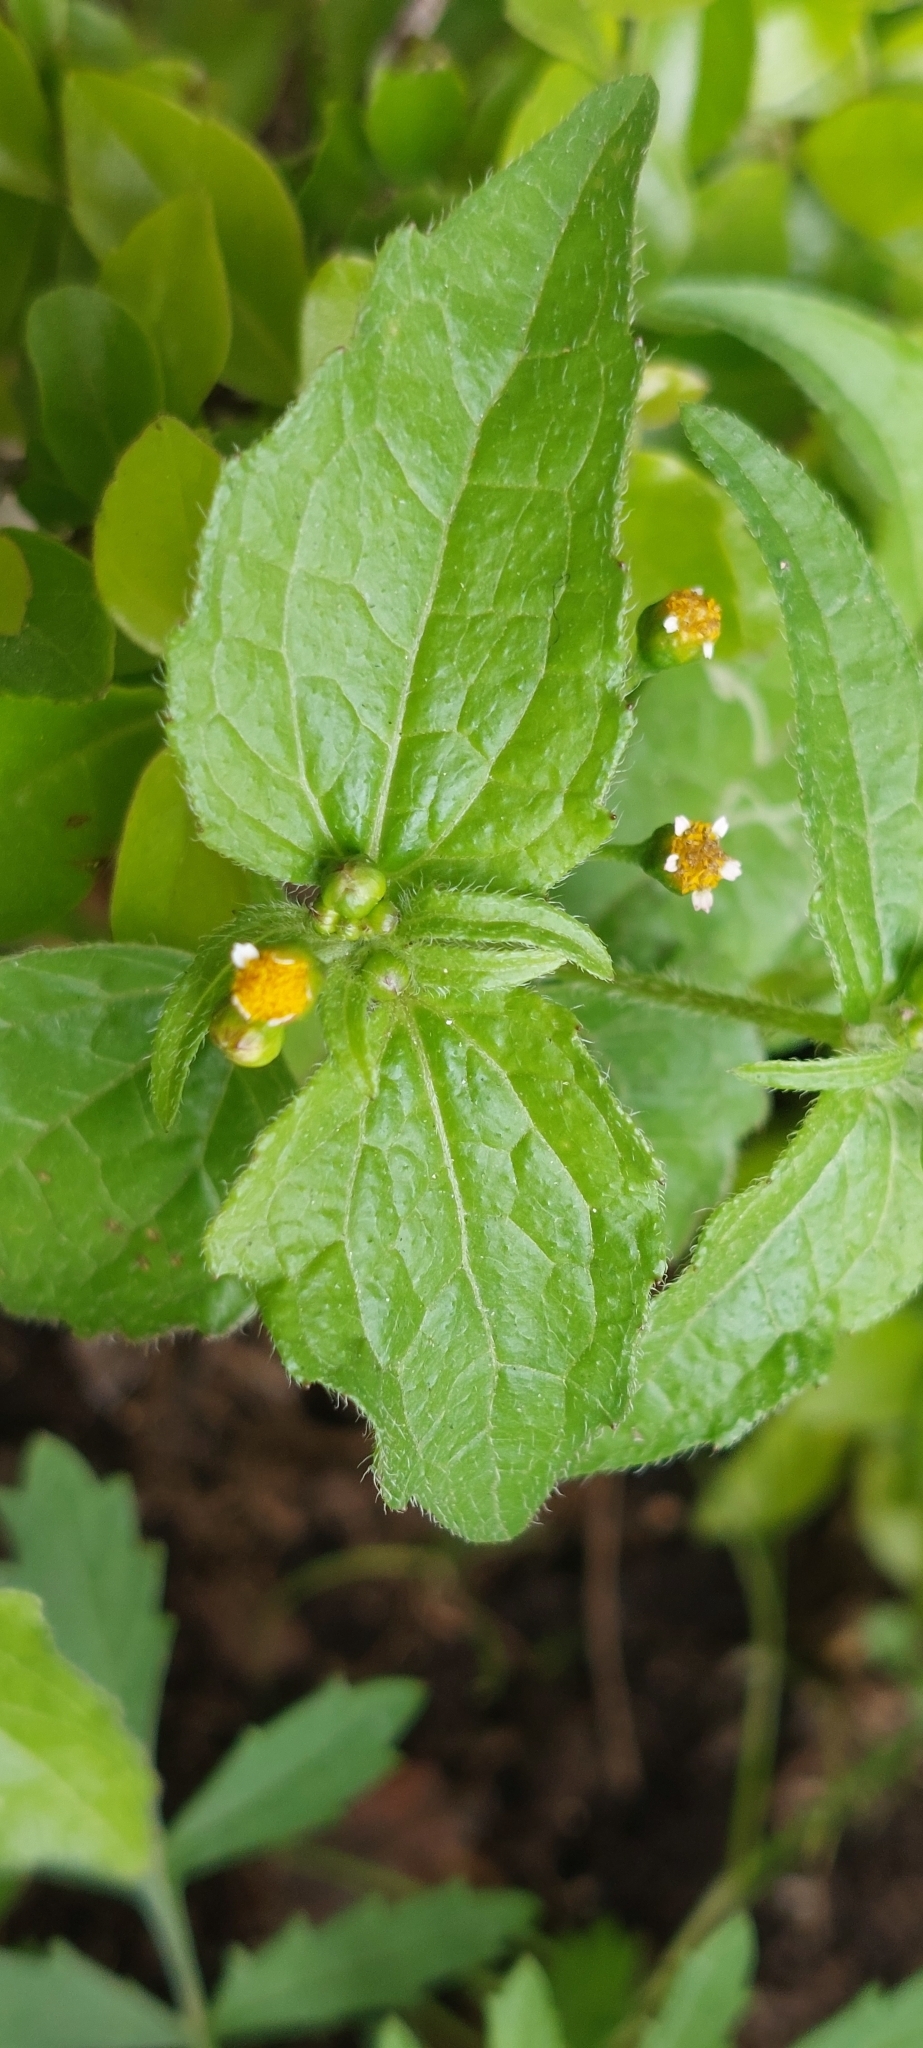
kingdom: Plantae
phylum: Tracheophyta
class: Magnoliopsida
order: Asterales
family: Asteraceae
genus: Galinsoga
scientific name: Galinsoga parviflora
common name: Gallant soldier
